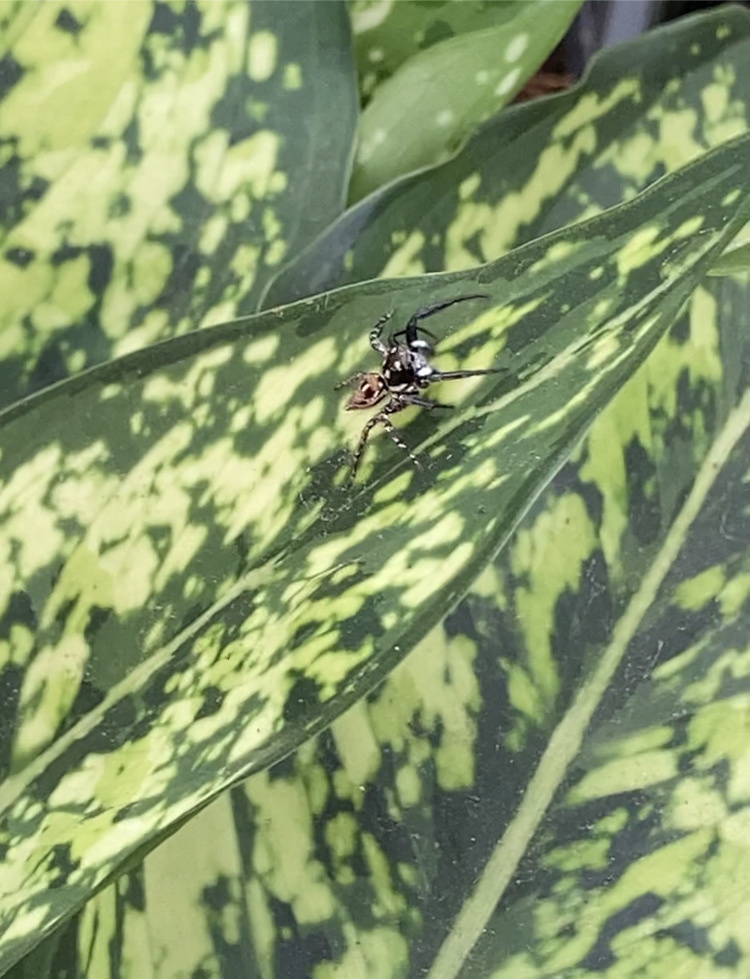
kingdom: Animalia
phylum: Arthropoda
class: Arachnida
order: Araneae
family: Salticidae
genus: Anasaitis
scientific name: Anasaitis canosa
